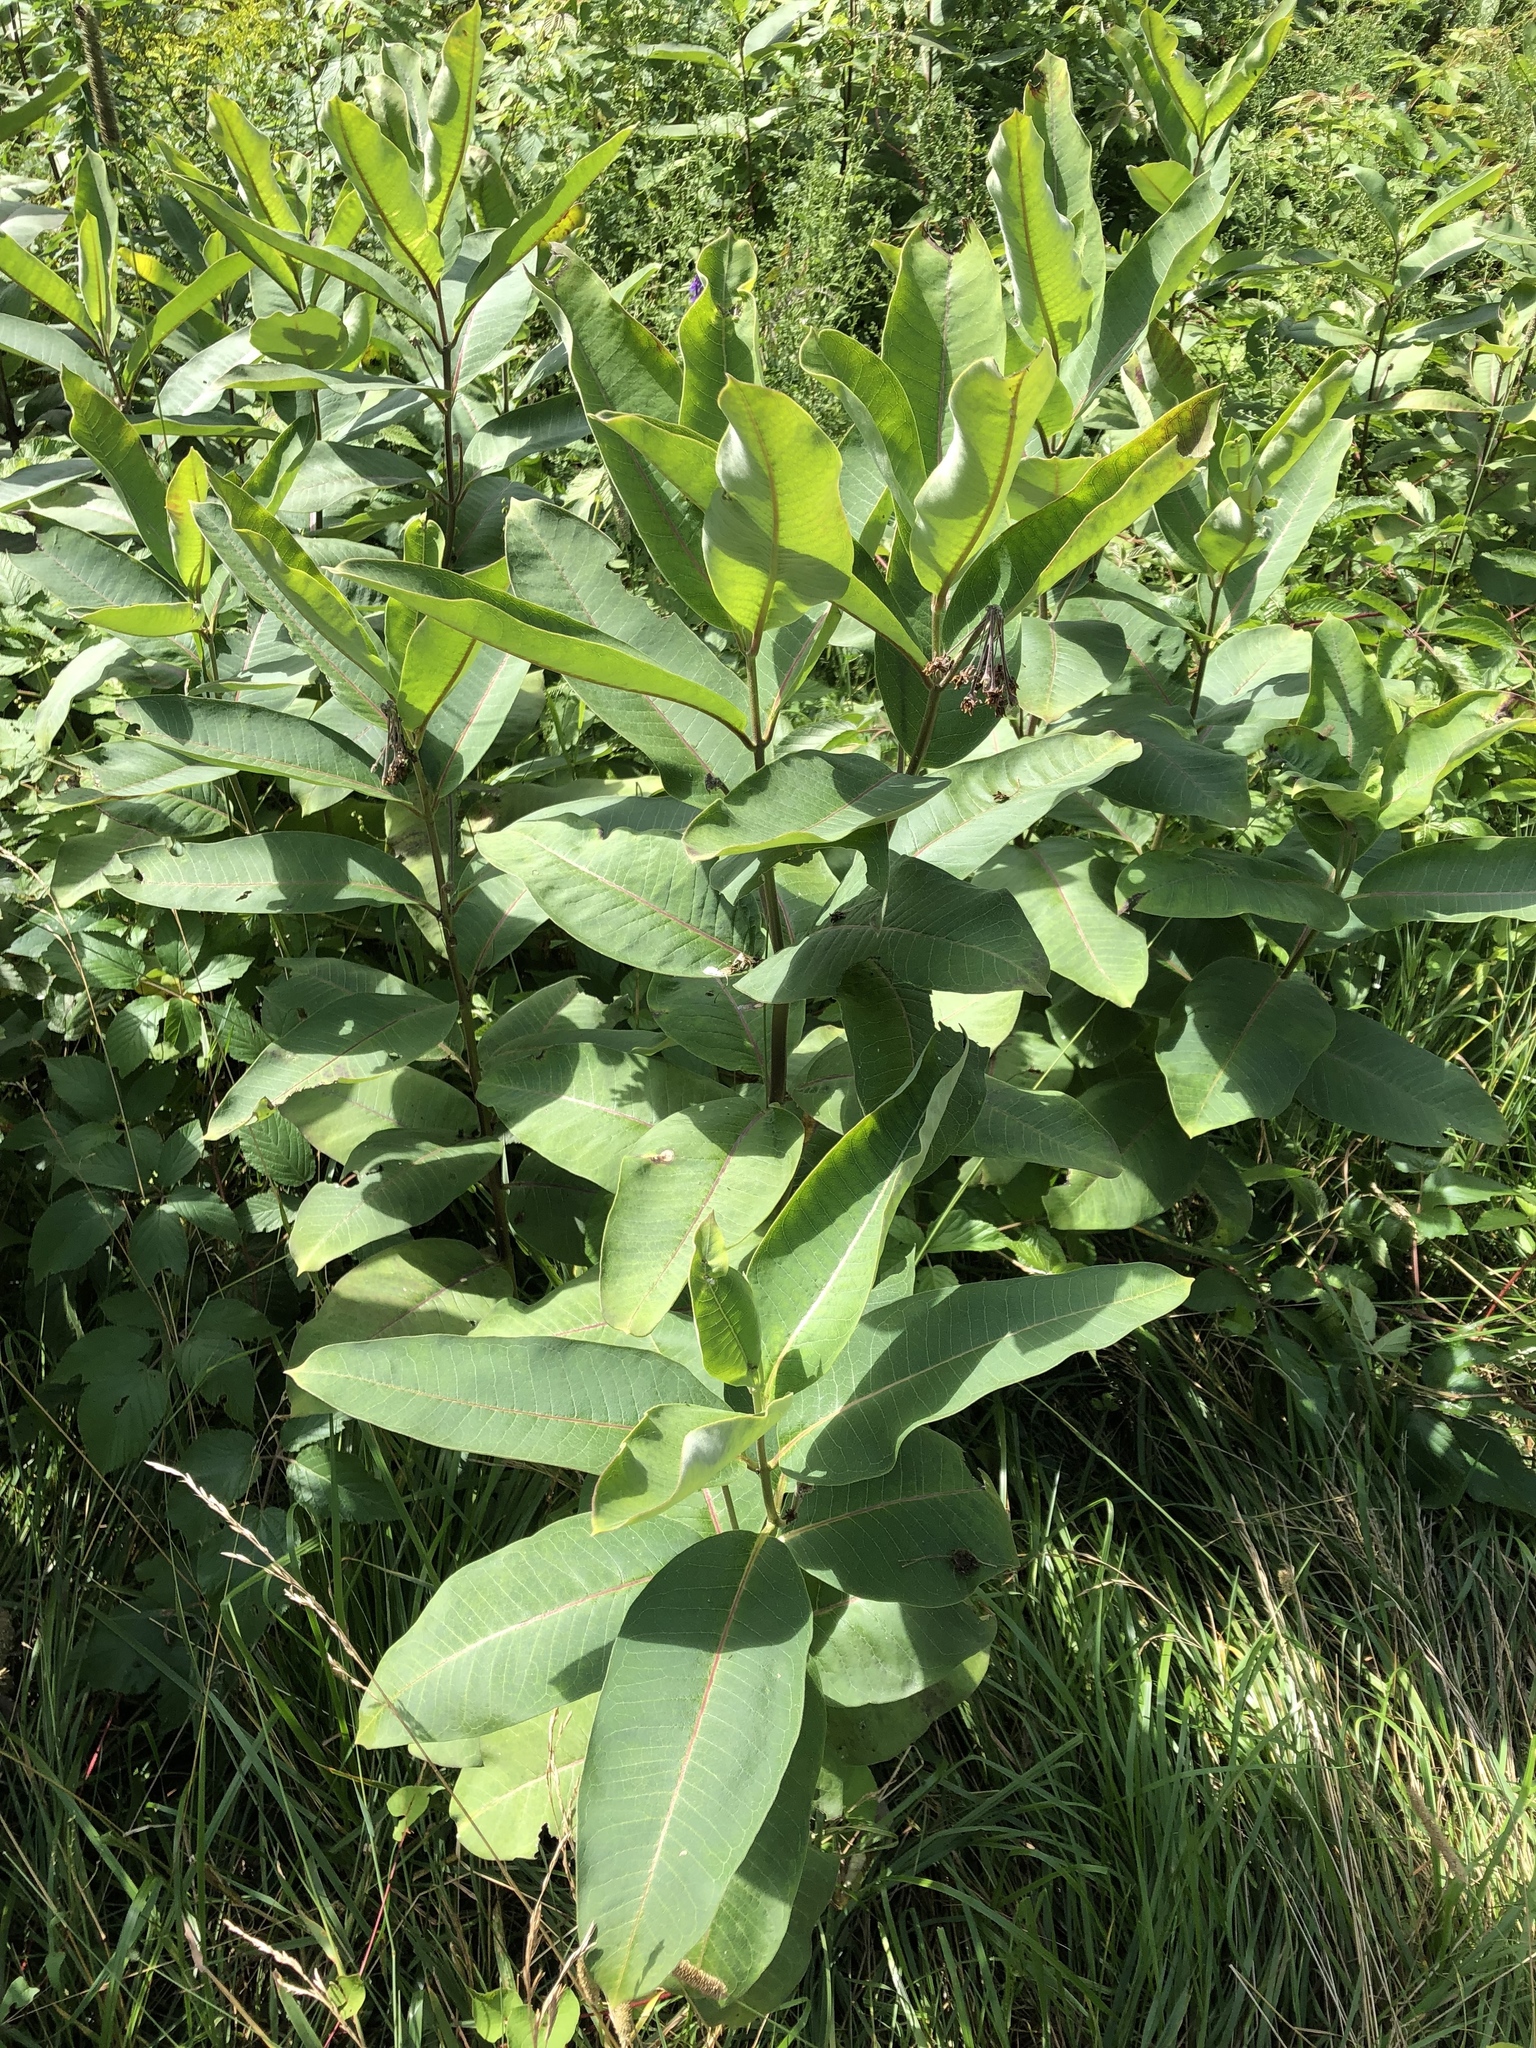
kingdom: Plantae
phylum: Tracheophyta
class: Magnoliopsida
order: Gentianales
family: Apocynaceae
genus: Asclepias
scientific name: Asclepias syriaca
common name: Common milkweed
